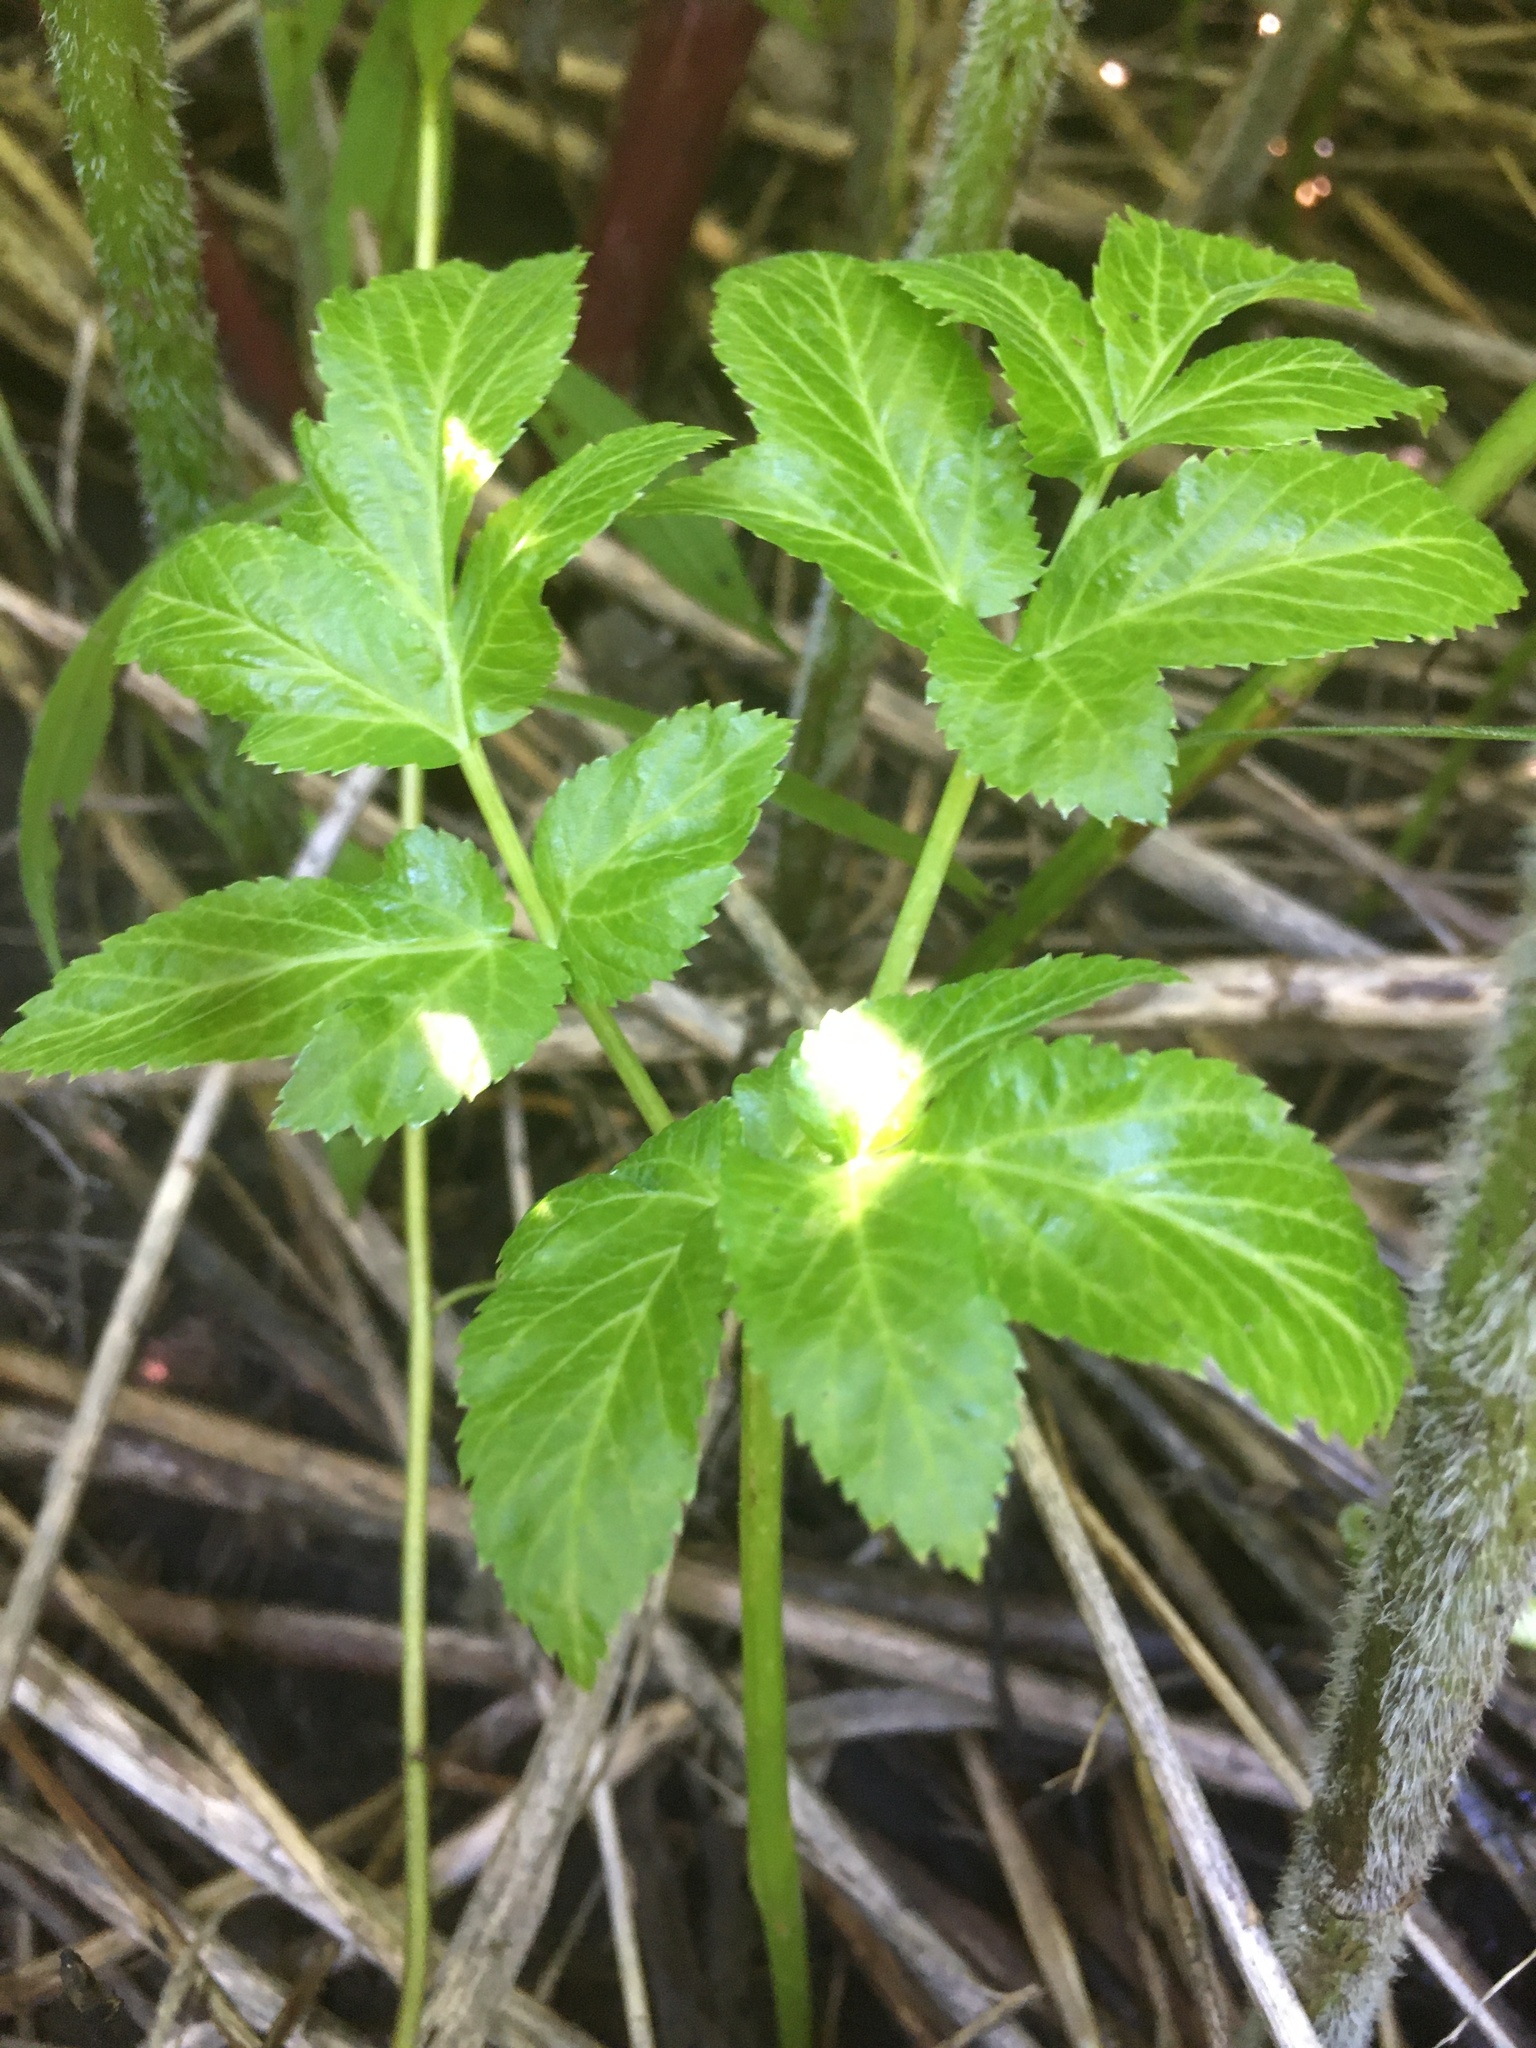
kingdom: Plantae
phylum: Tracheophyta
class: Magnoliopsida
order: Apiales
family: Apiaceae
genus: Aegopodium
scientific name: Aegopodium podagraria
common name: Ground-elder
